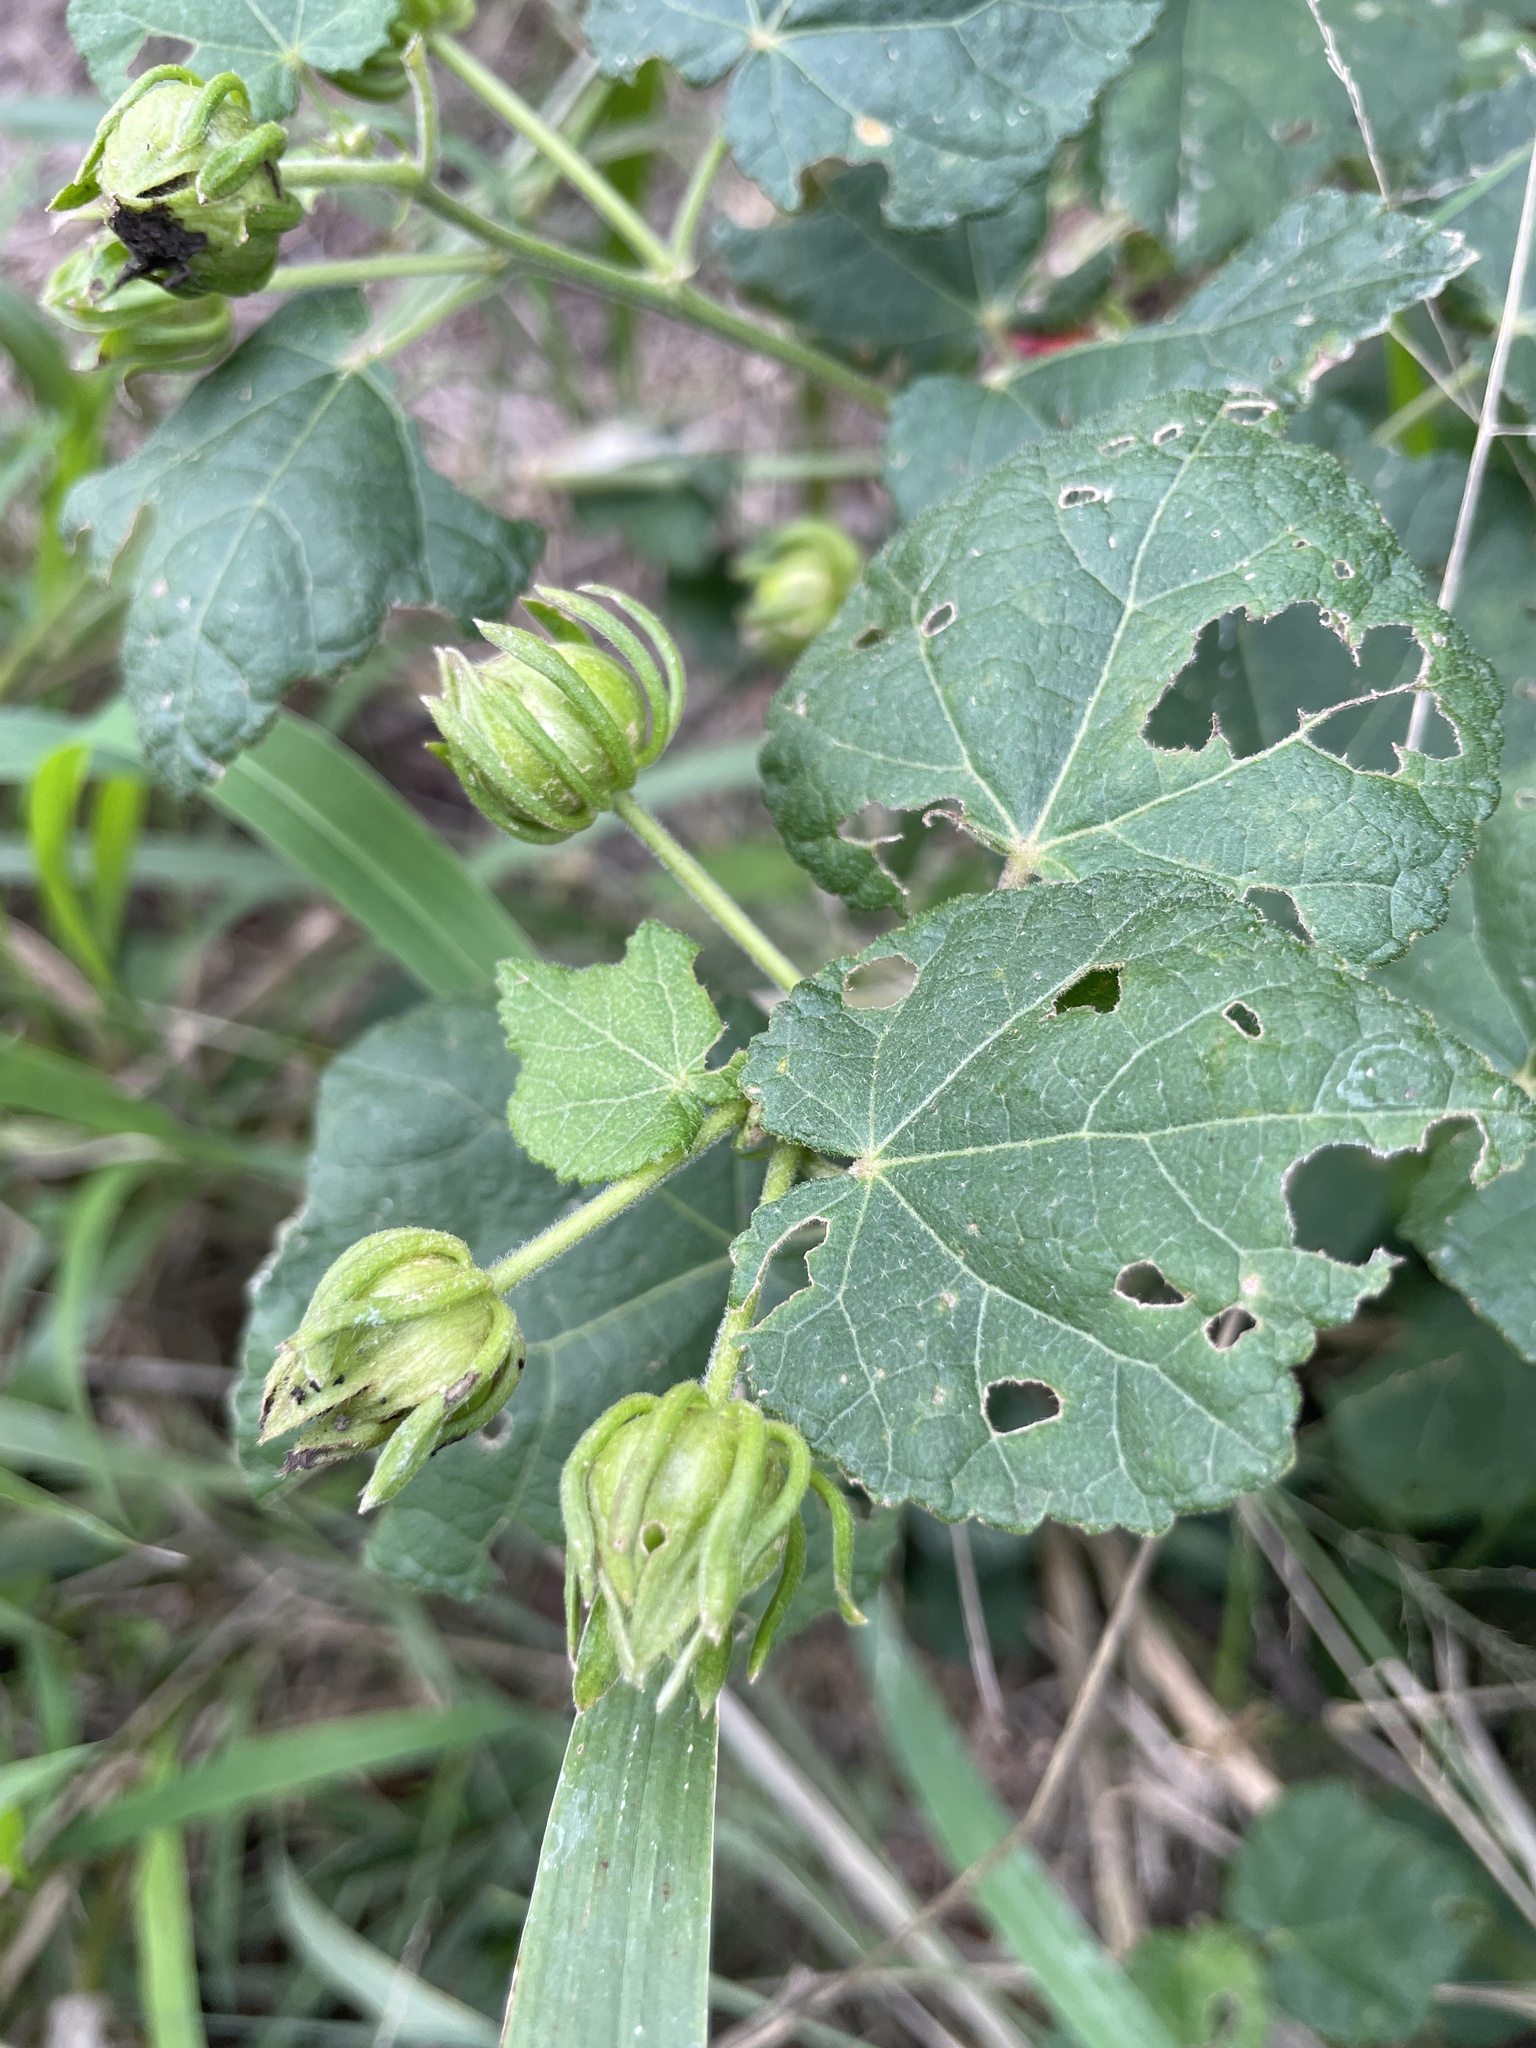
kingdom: Plantae
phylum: Tracheophyta
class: Magnoliopsida
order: Malvales
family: Malvaceae
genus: Malvaviscus
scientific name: Malvaviscus arboreus
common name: Wax mallow
